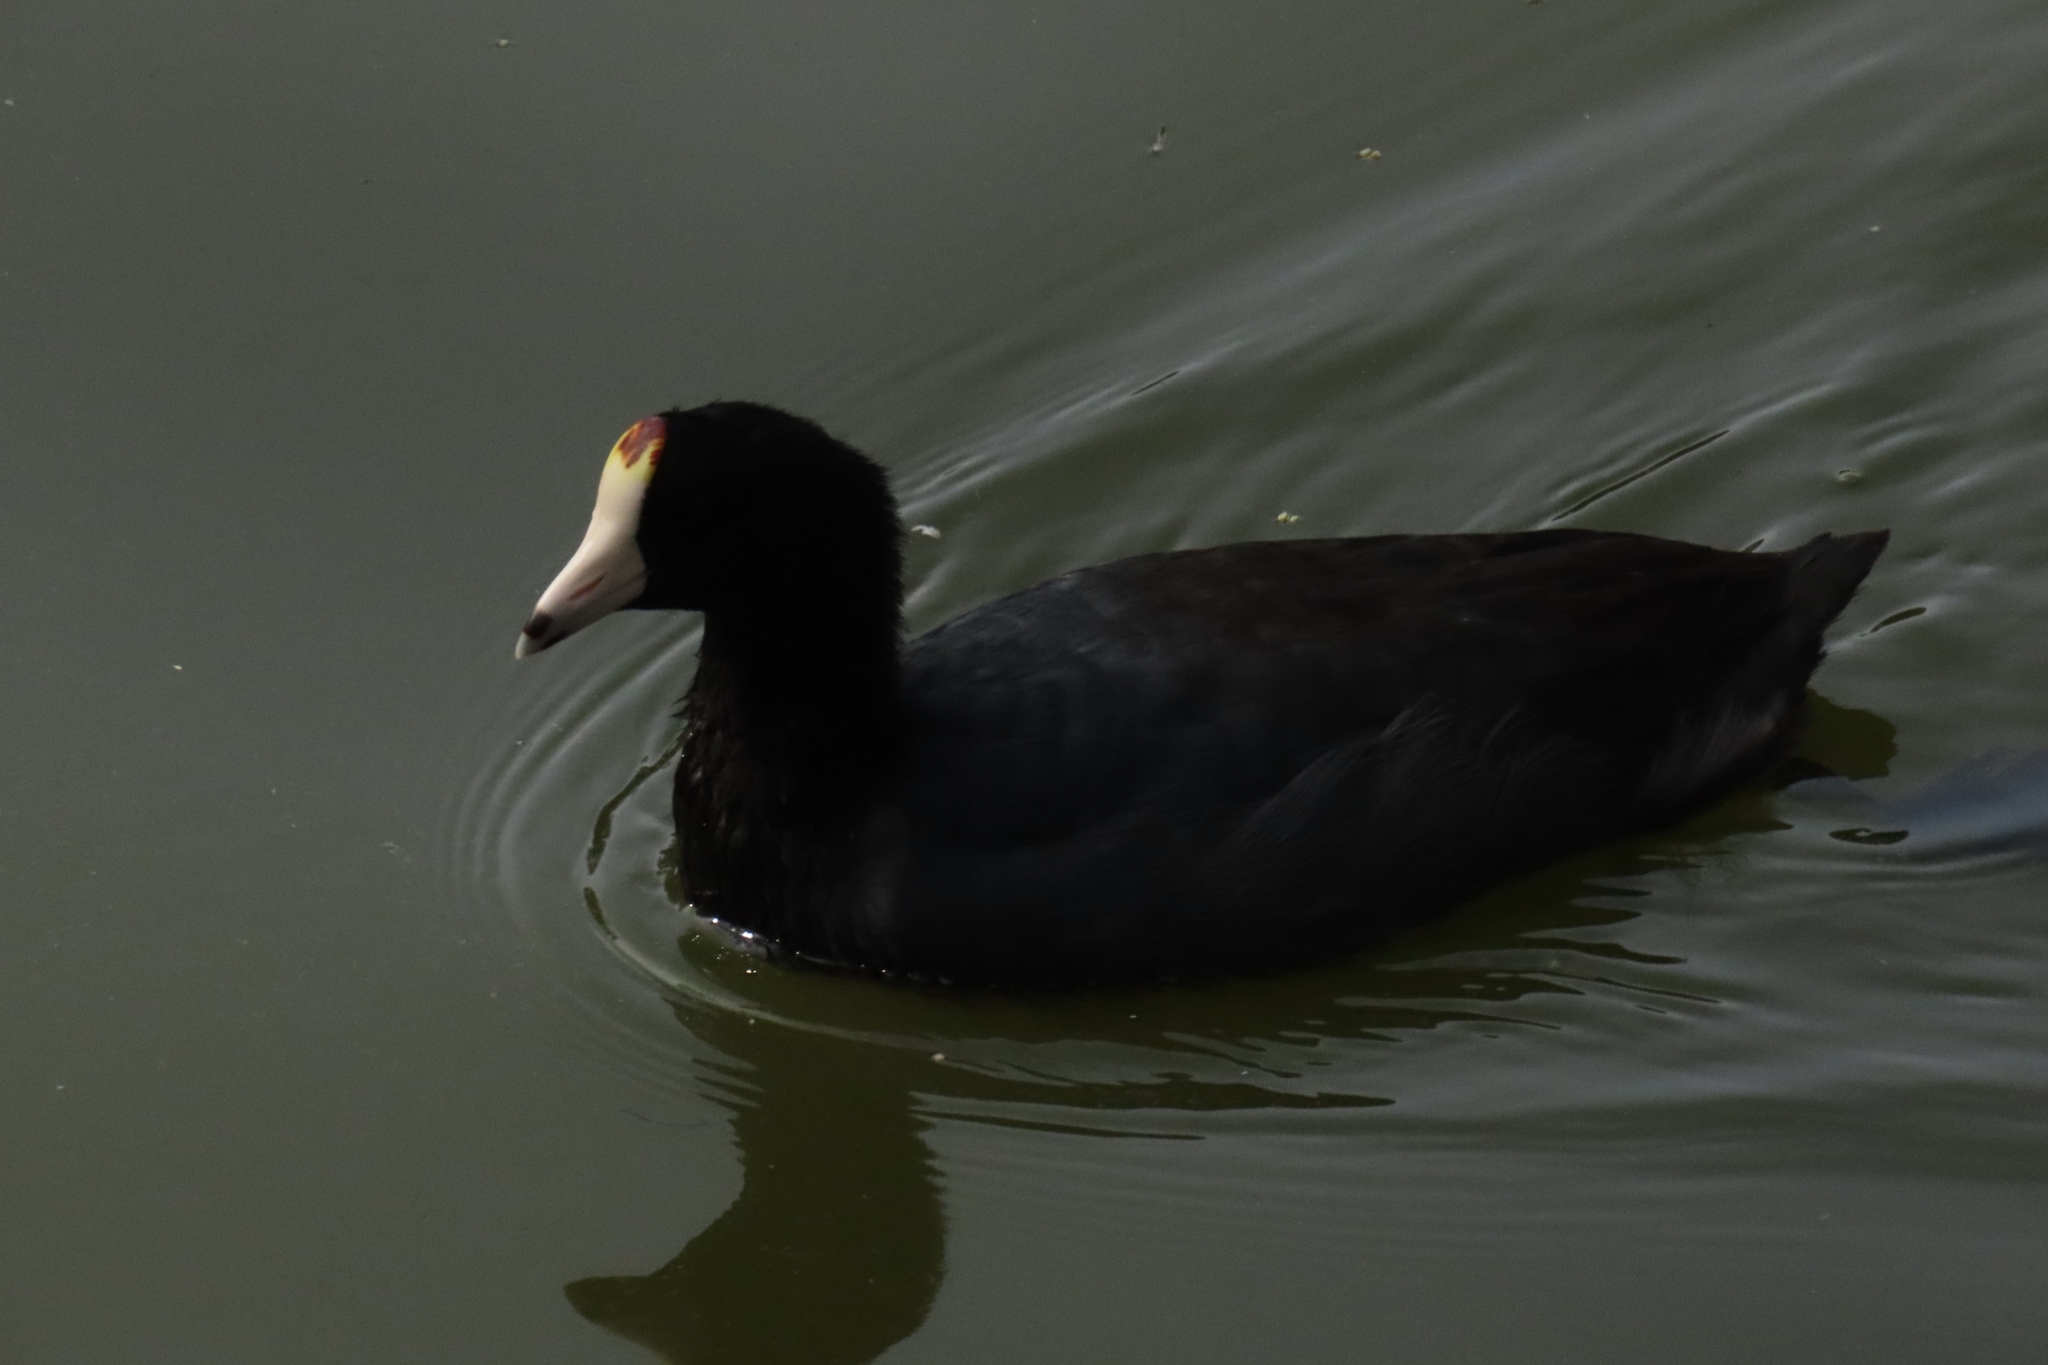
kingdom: Animalia
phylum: Chordata
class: Aves
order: Gruiformes
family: Rallidae
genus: Fulica
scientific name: Fulica americana
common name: American coot
